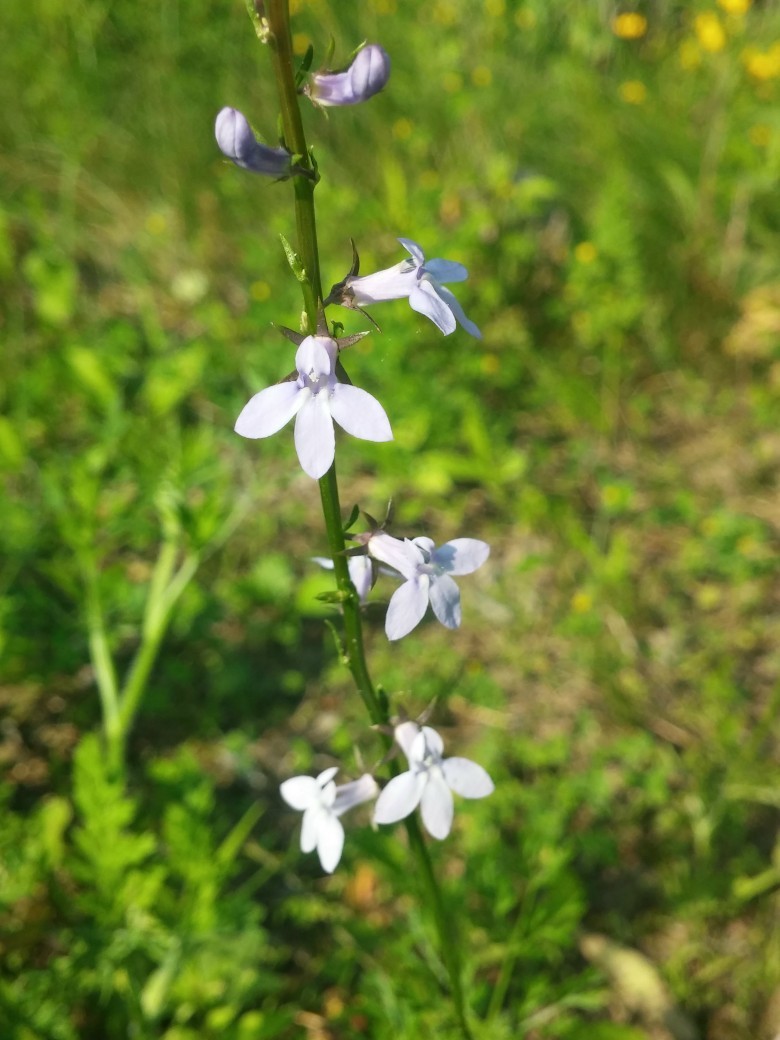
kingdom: Plantae
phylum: Tracheophyta
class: Magnoliopsida
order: Asterales
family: Campanulaceae
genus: Lobelia
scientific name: Lobelia spicata
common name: Pale-spike lobelia
